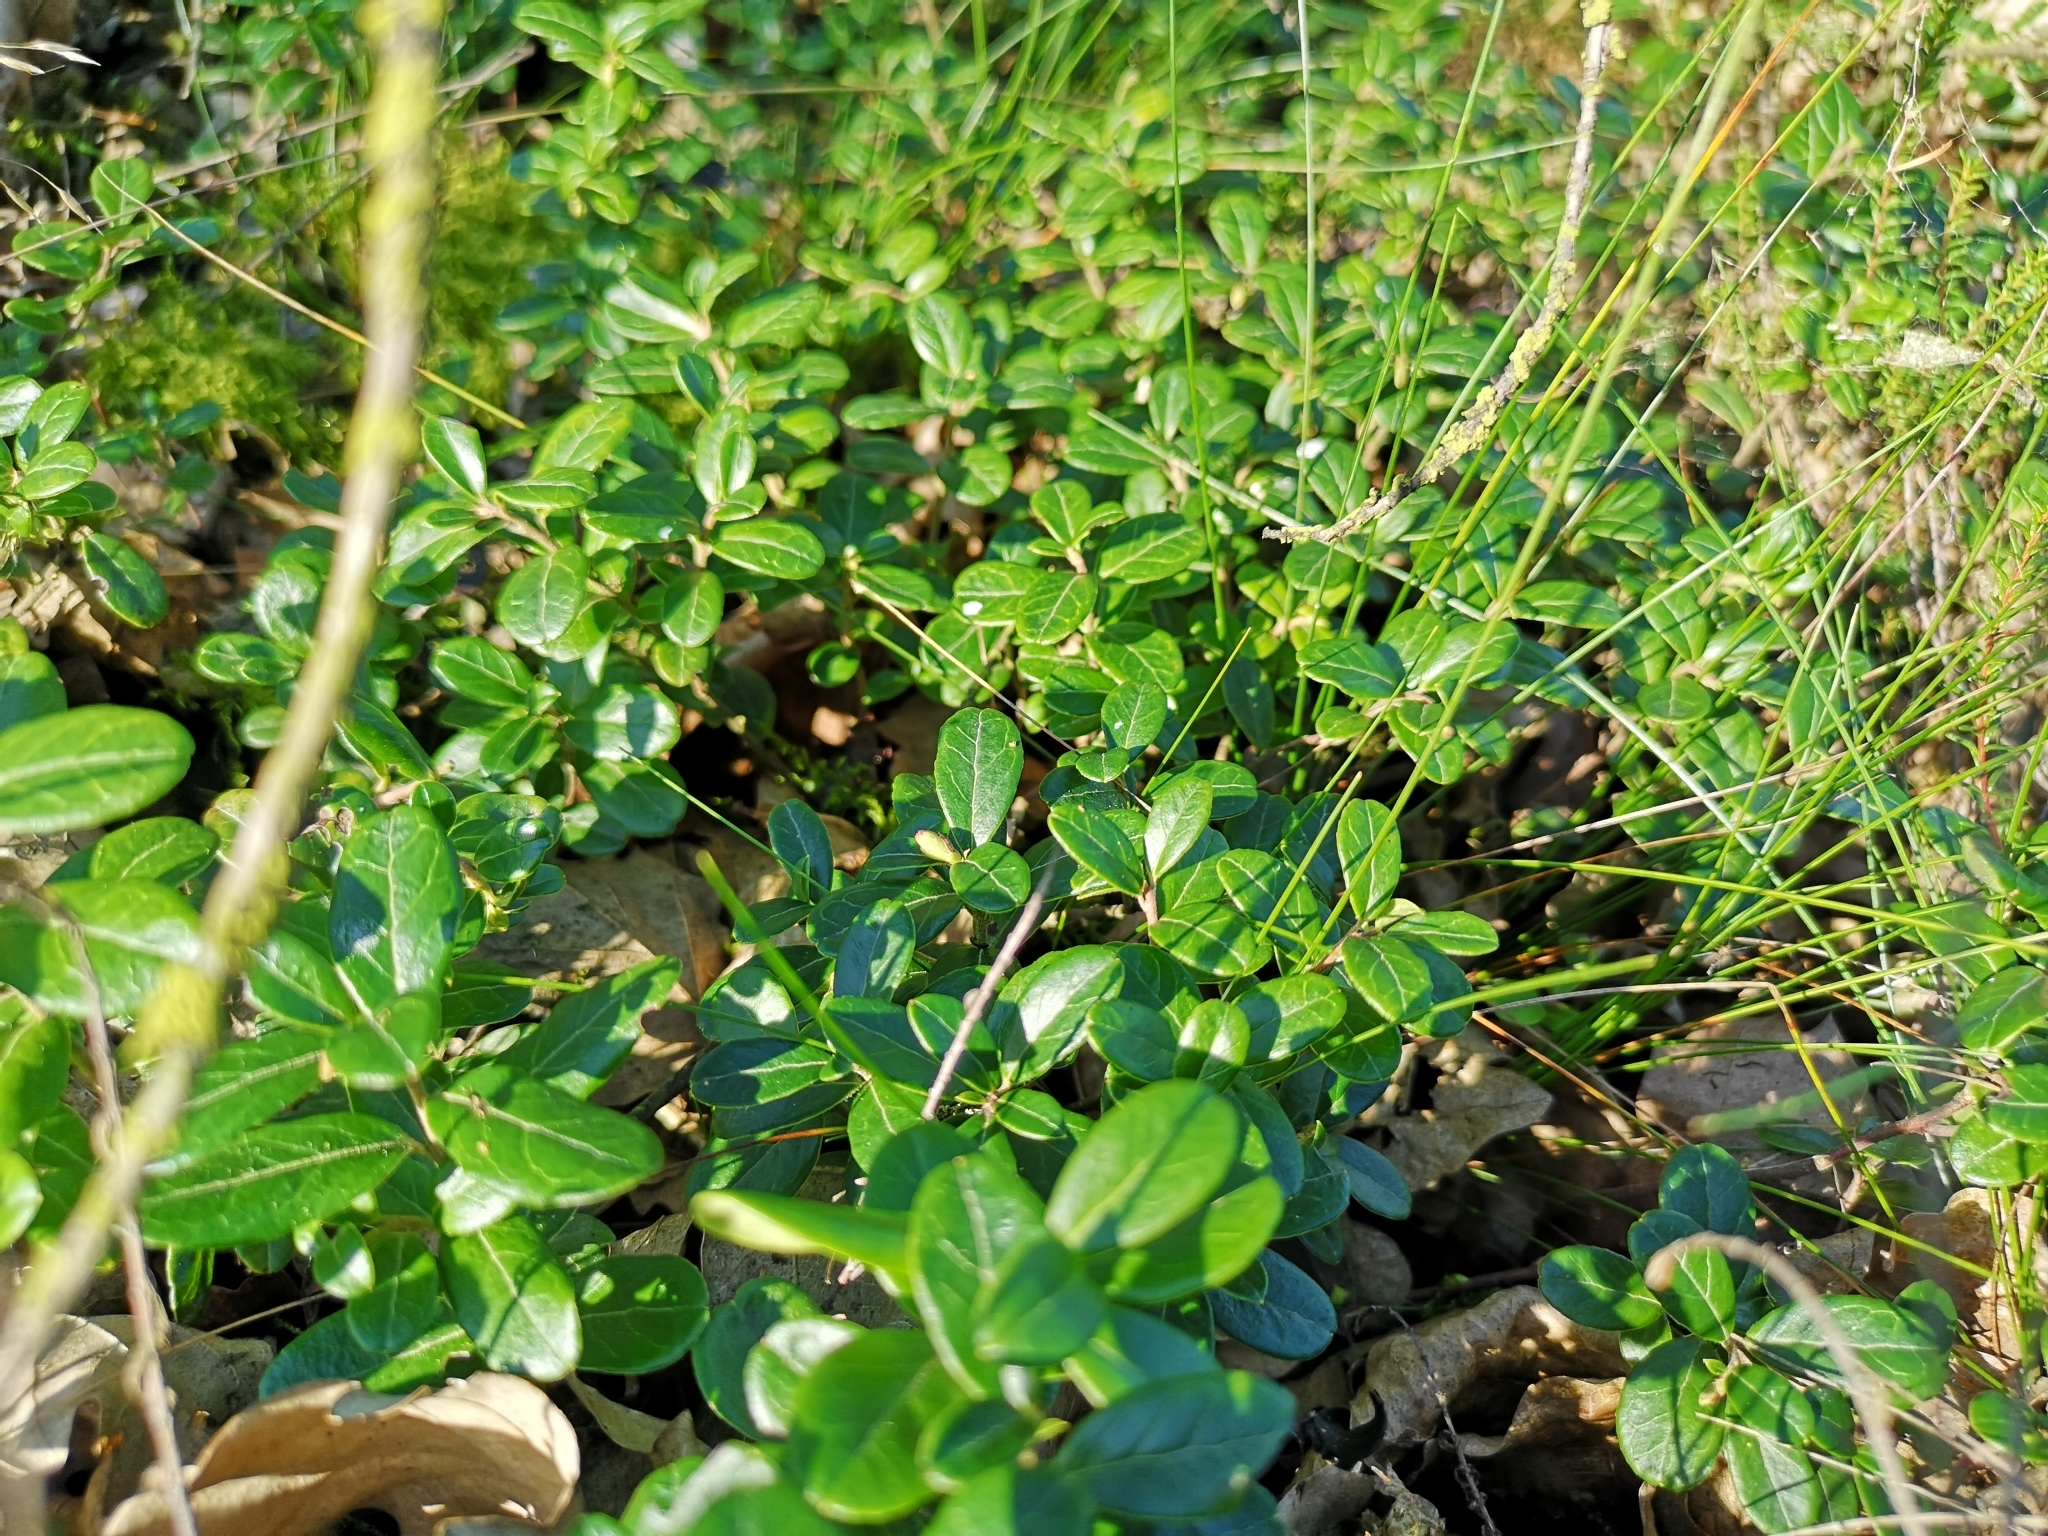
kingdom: Plantae
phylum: Tracheophyta
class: Magnoliopsida
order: Ericales
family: Ericaceae
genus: Vaccinium
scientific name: Vaccinium vitis-idaea
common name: Cowberry
